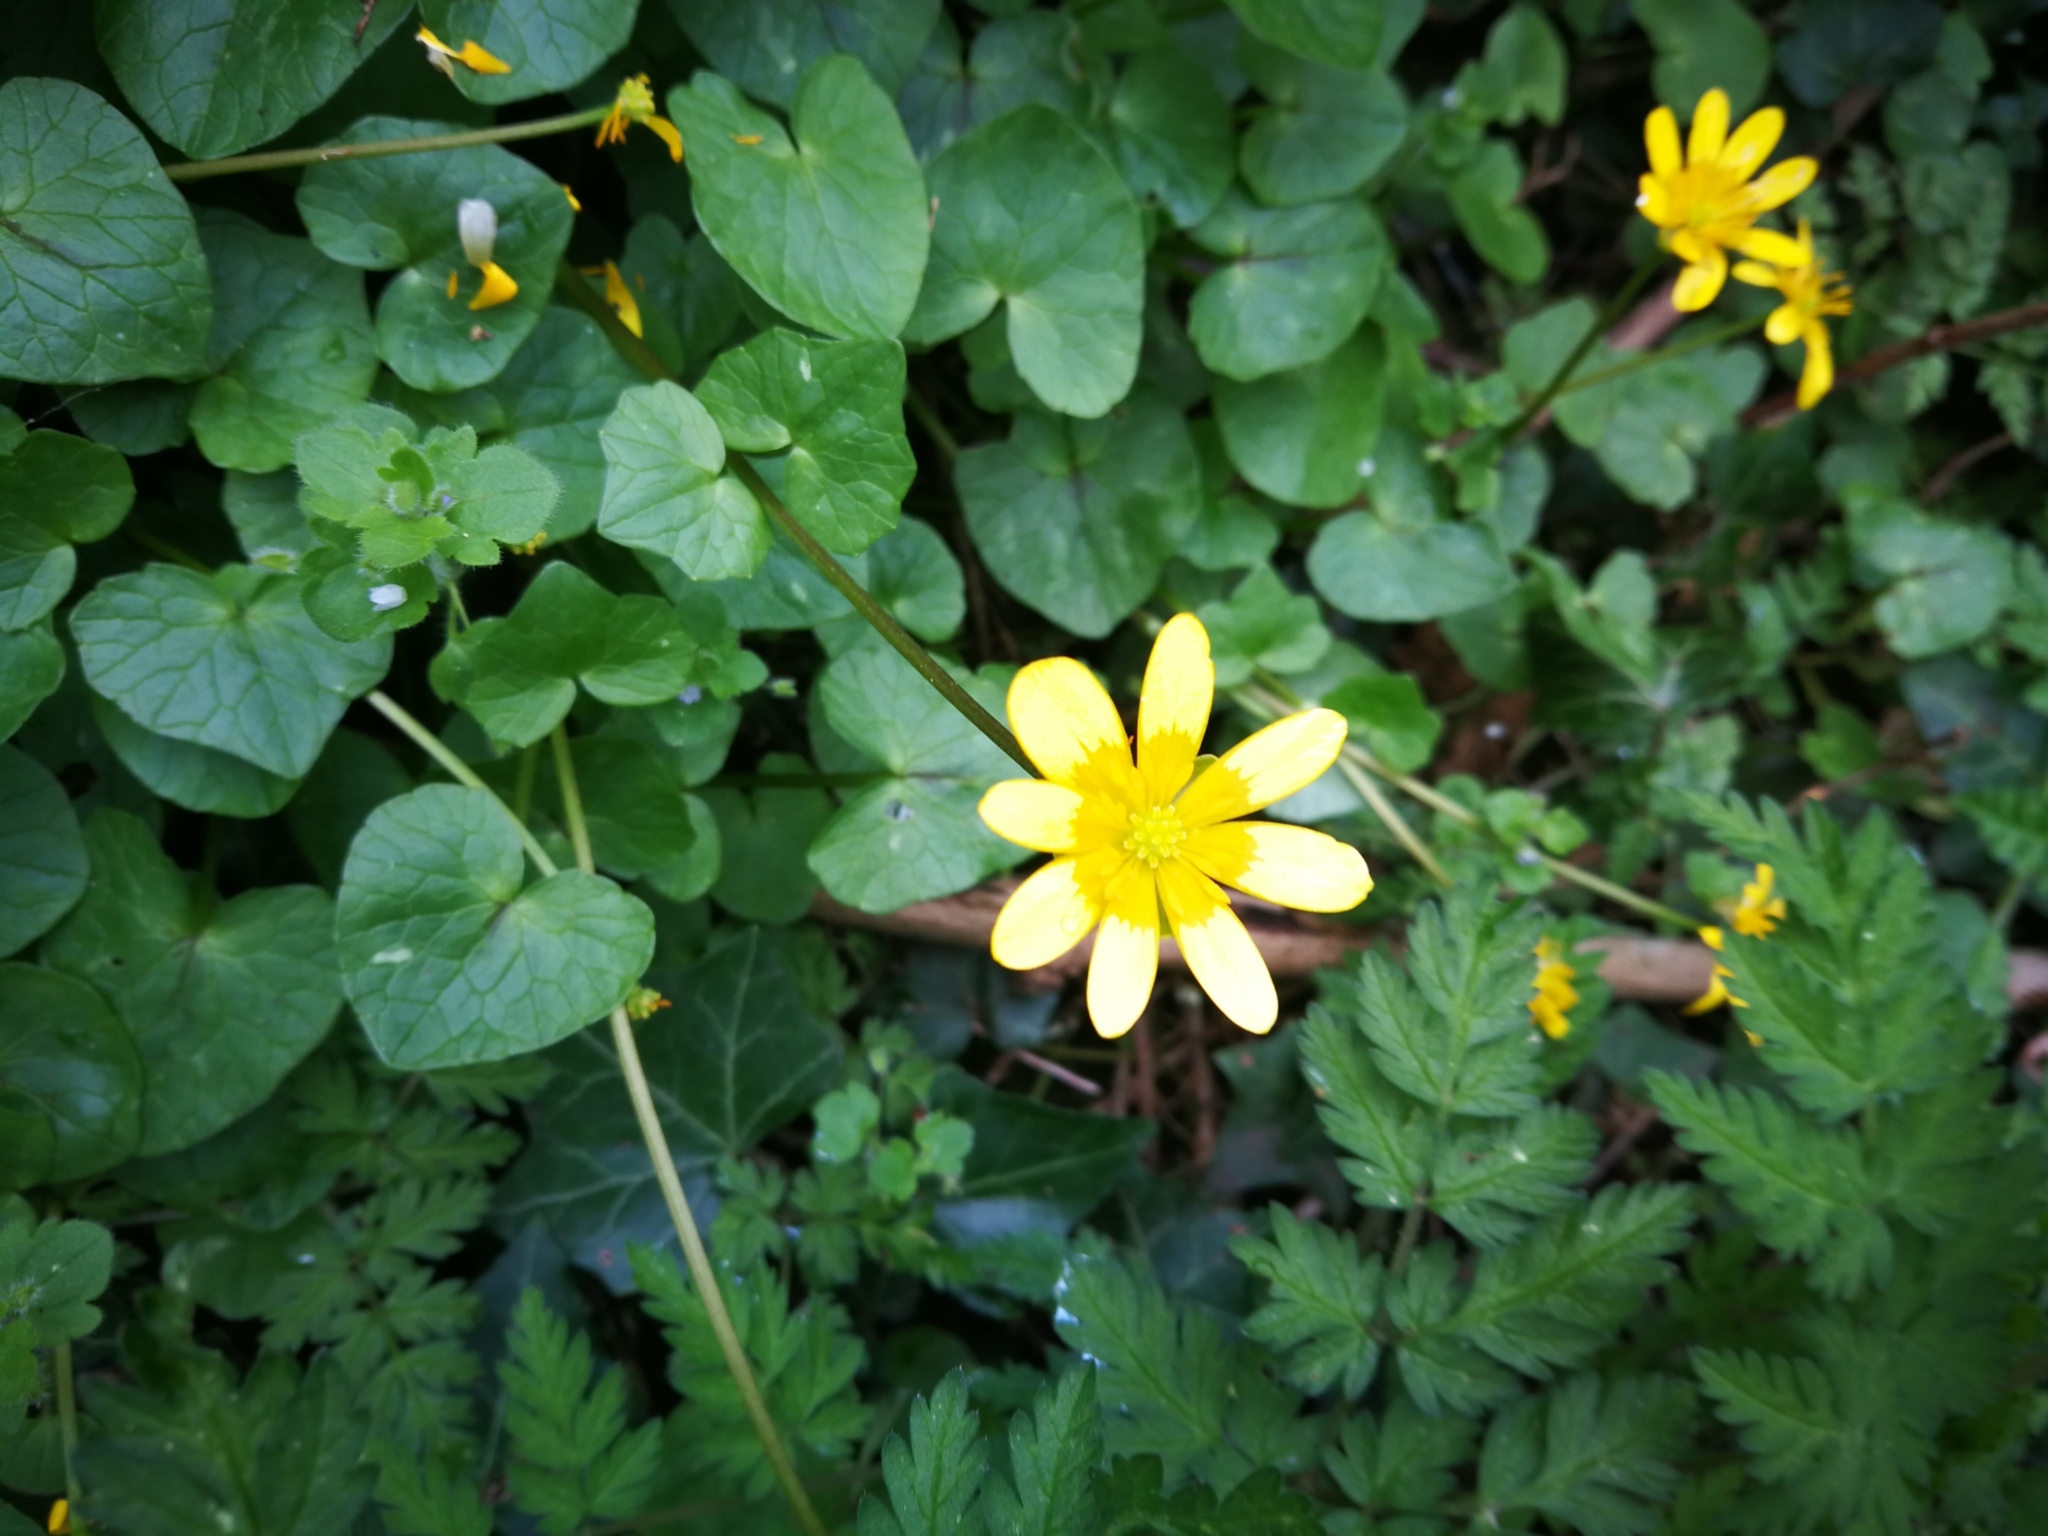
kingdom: Plantae
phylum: Tracheophyta
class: Magnoliopsida
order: Ranunculales
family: Ranunculaceae
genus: Ficaria
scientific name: Ficaria verna
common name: Lesser celandine
